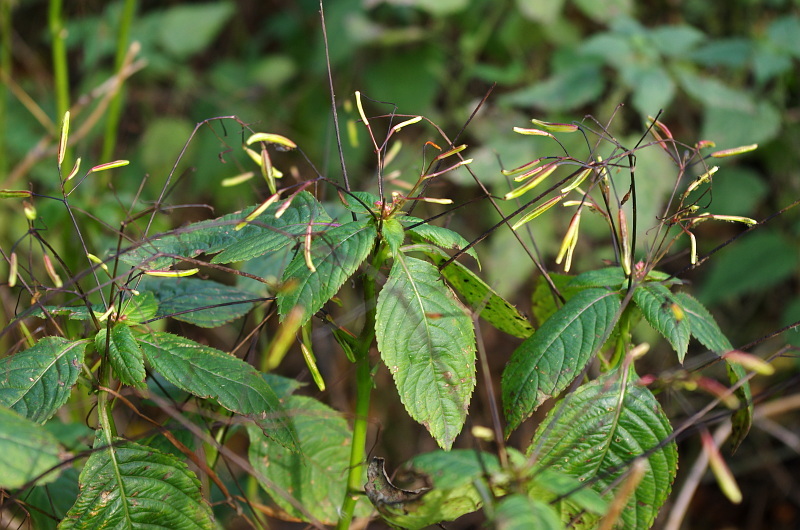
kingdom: Plantae
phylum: Tracheophyta
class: Magnoliopsida
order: Ericales
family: Balsaminaceae
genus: Impatiens
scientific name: Impatiens parviflora
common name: Small balsam
